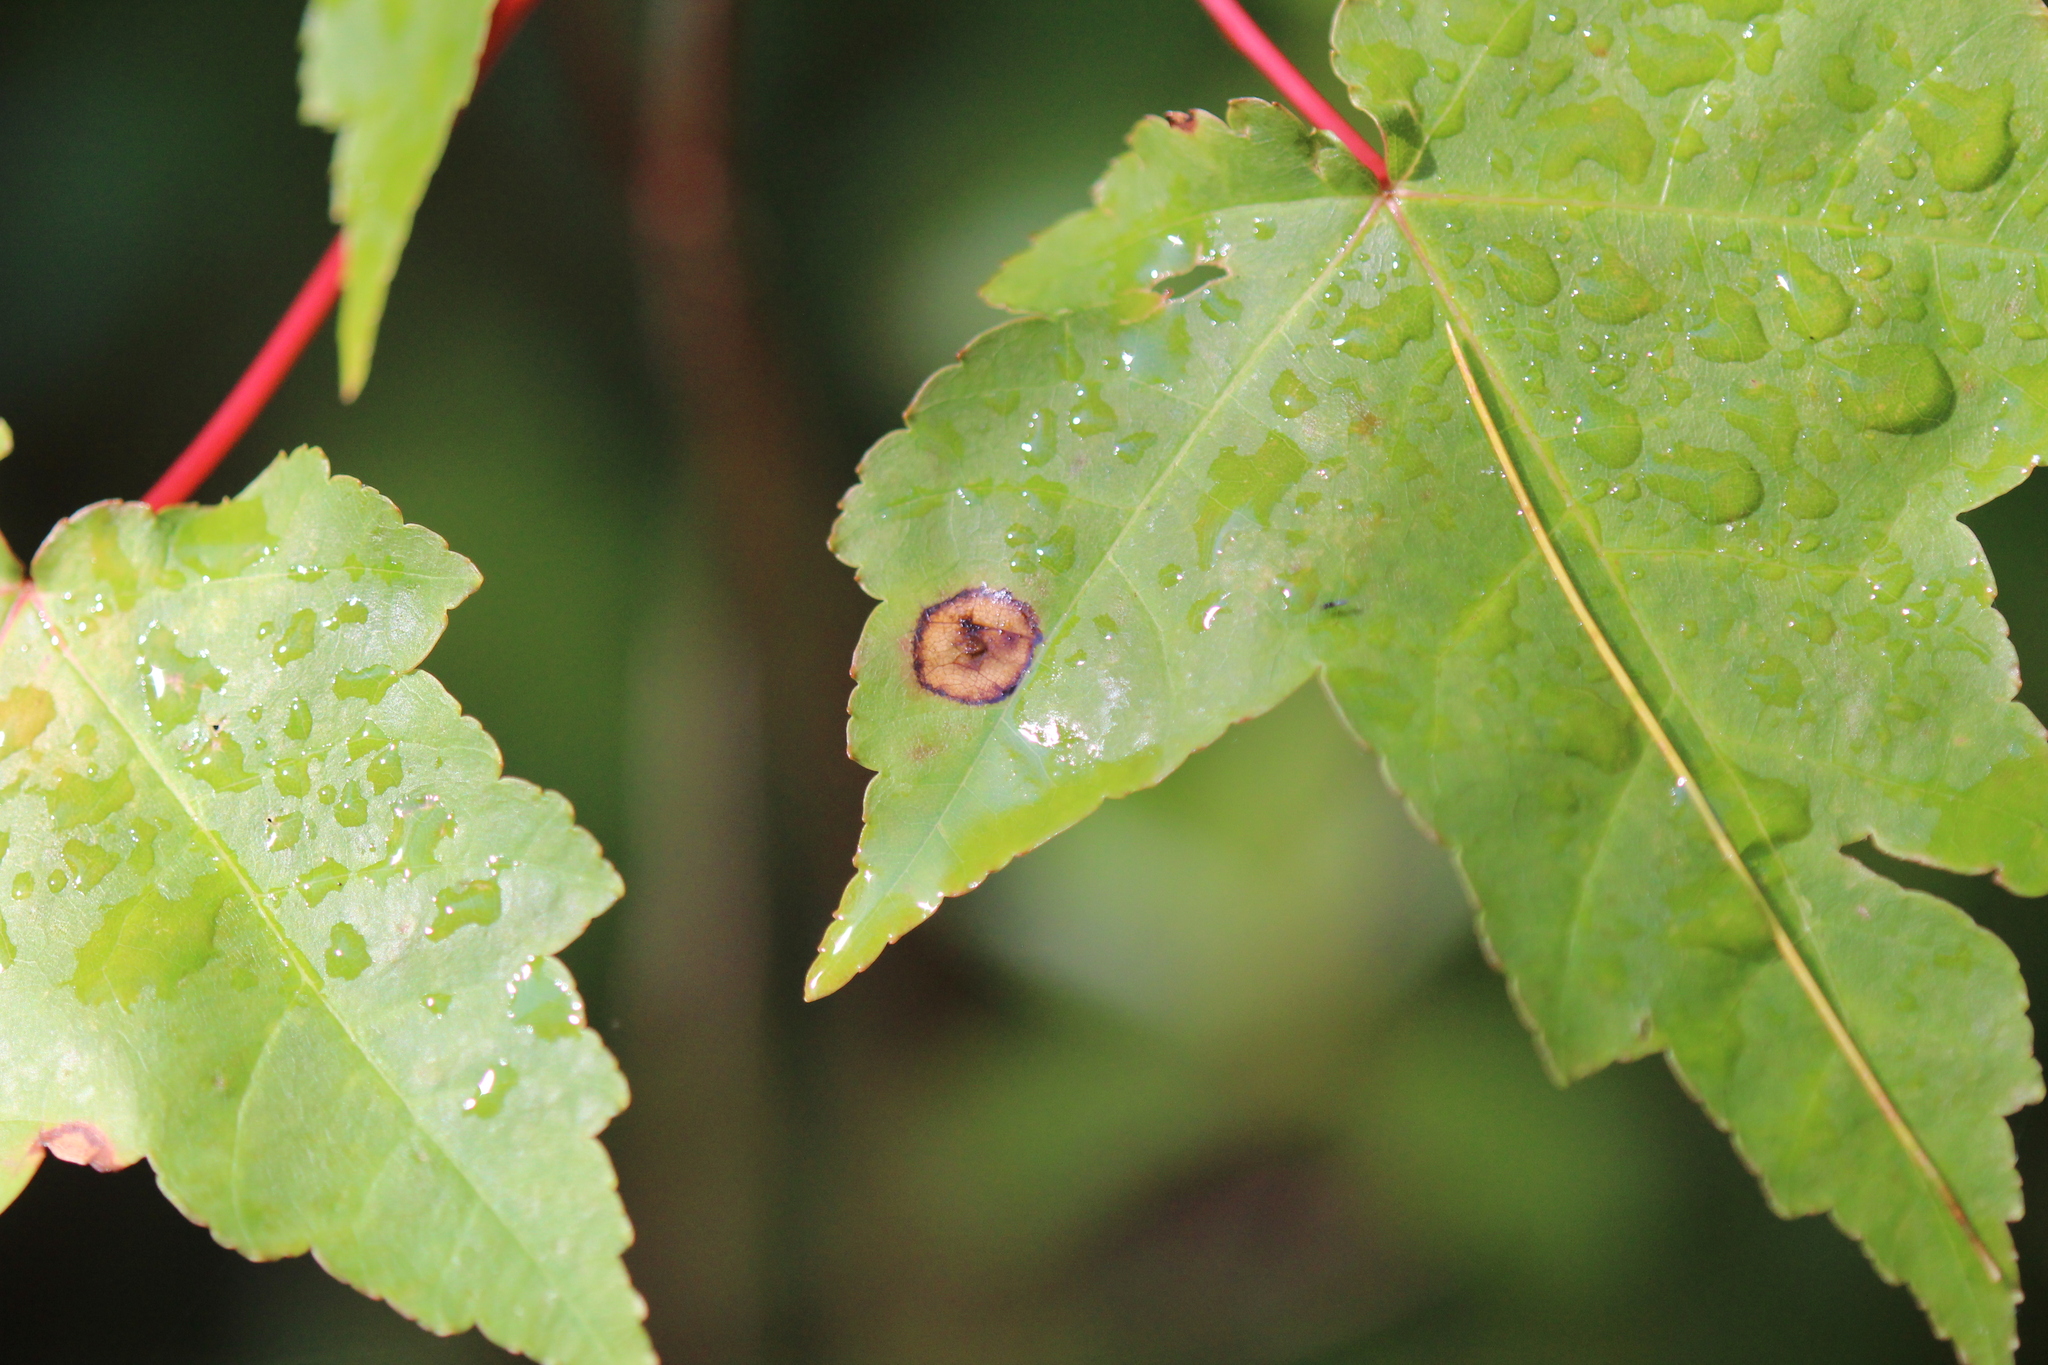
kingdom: Plantae
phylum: Tracheophyta
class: Magnoliopsida
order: Sapindales
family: Sapindaceae
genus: Acer
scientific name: Acer rubrum
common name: Red maple
